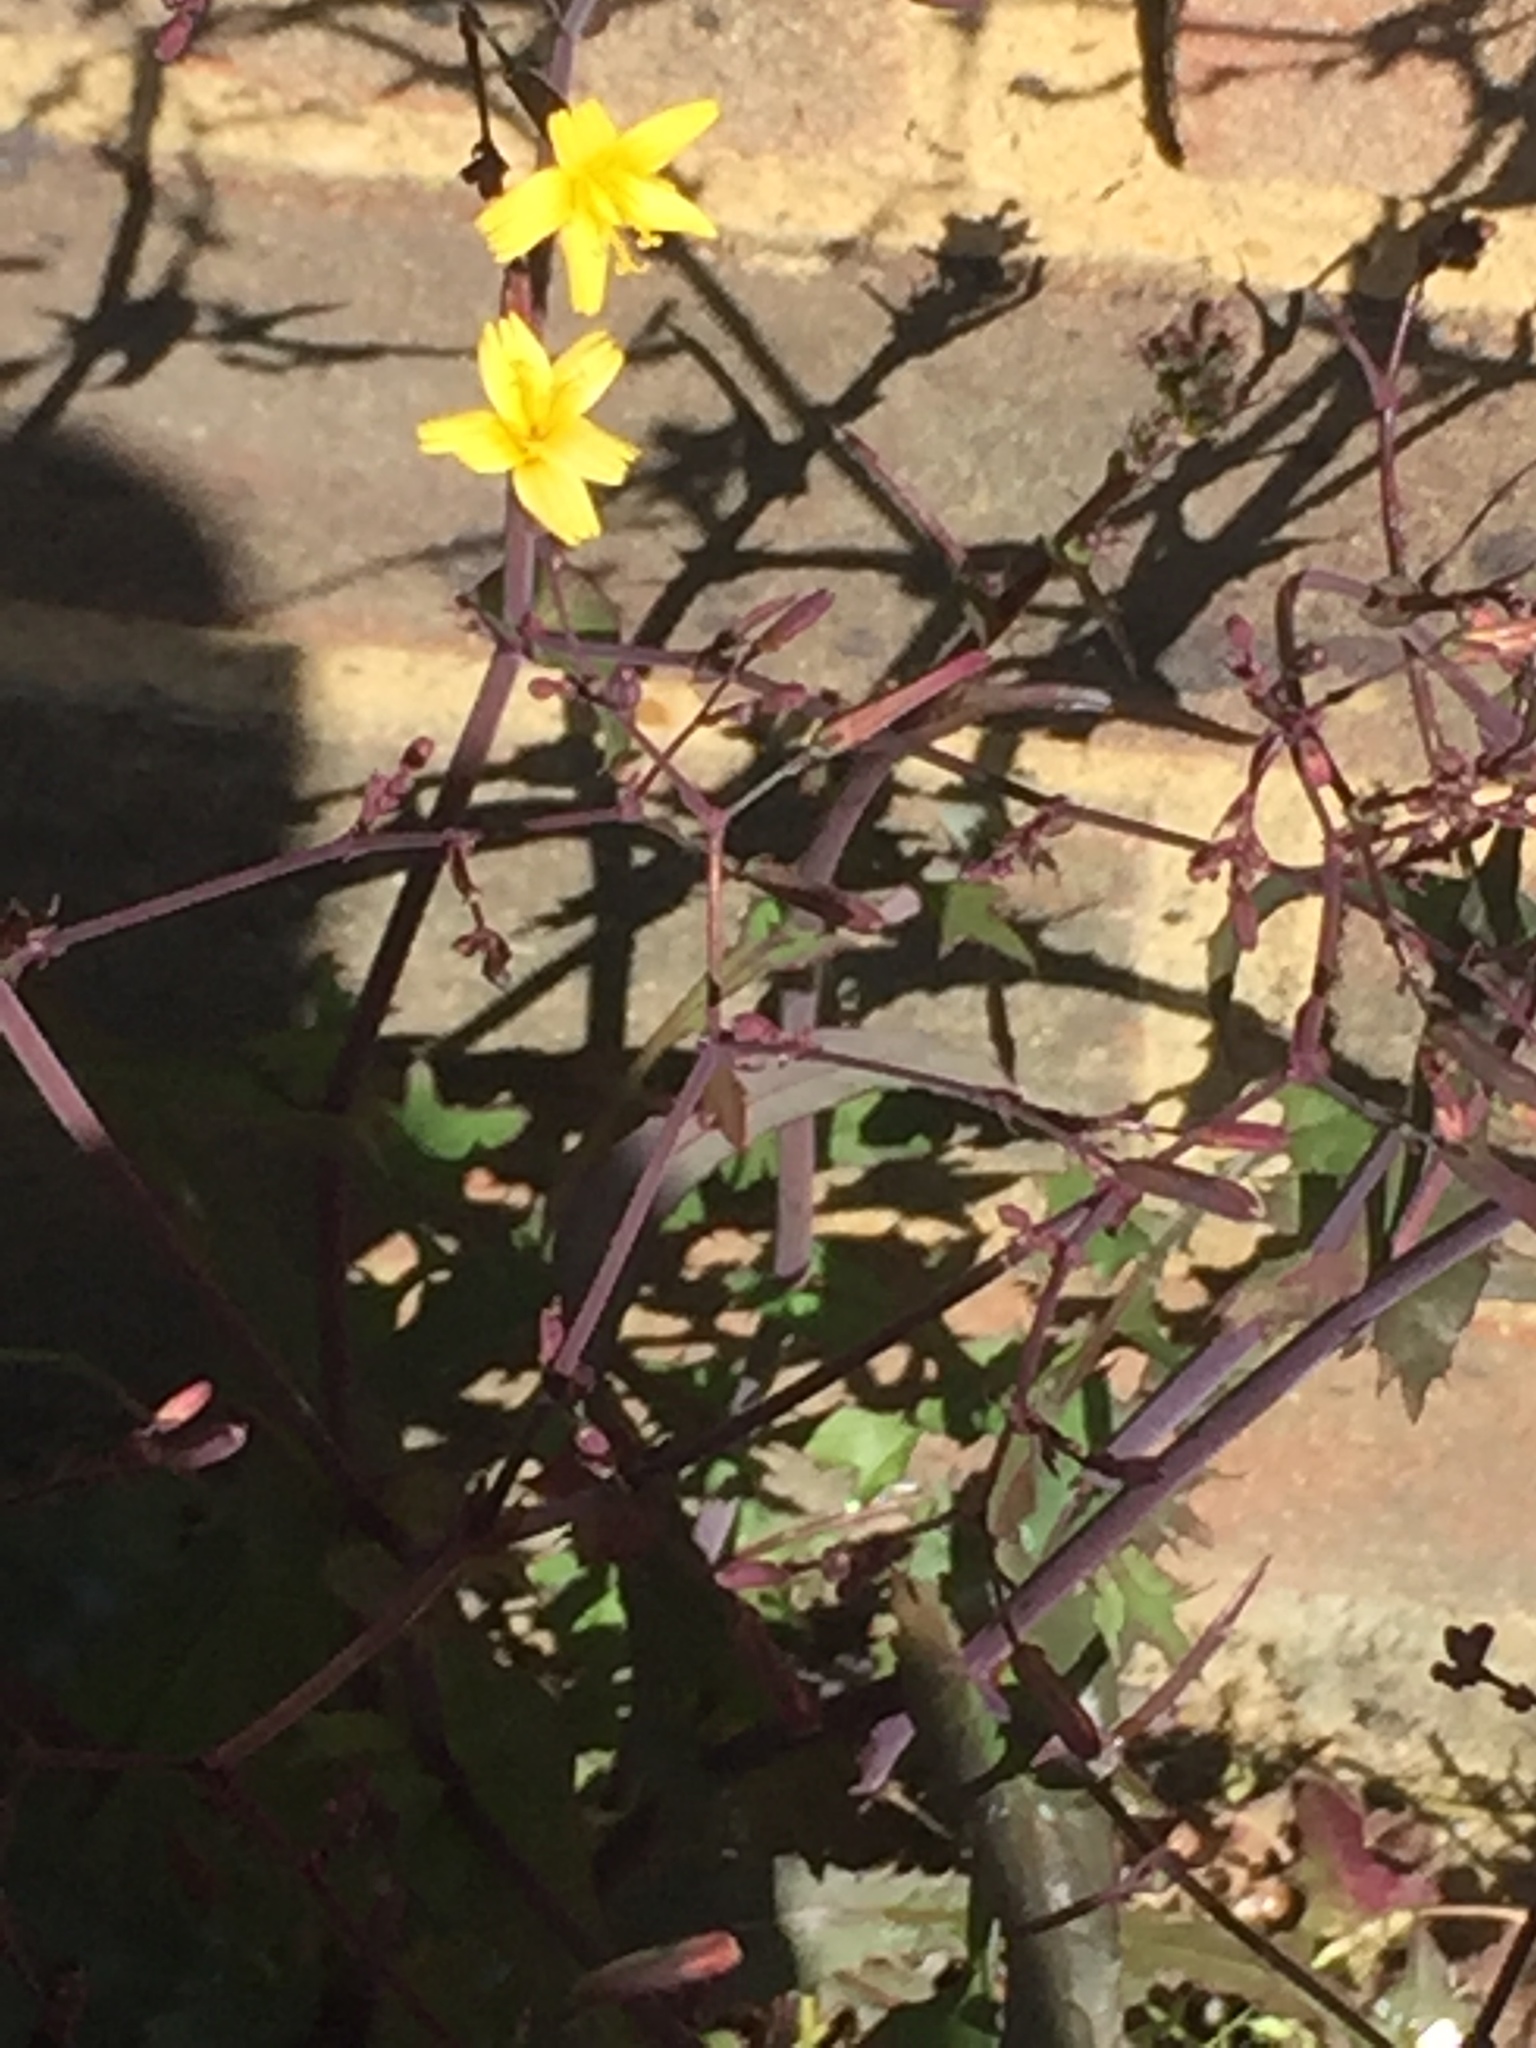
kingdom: Plantae
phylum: Tracheophyta
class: Magnoliopsida
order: Asterales
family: Asteraceae
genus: Mycelis
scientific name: Mycelis muralis
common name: Wall lettuce
